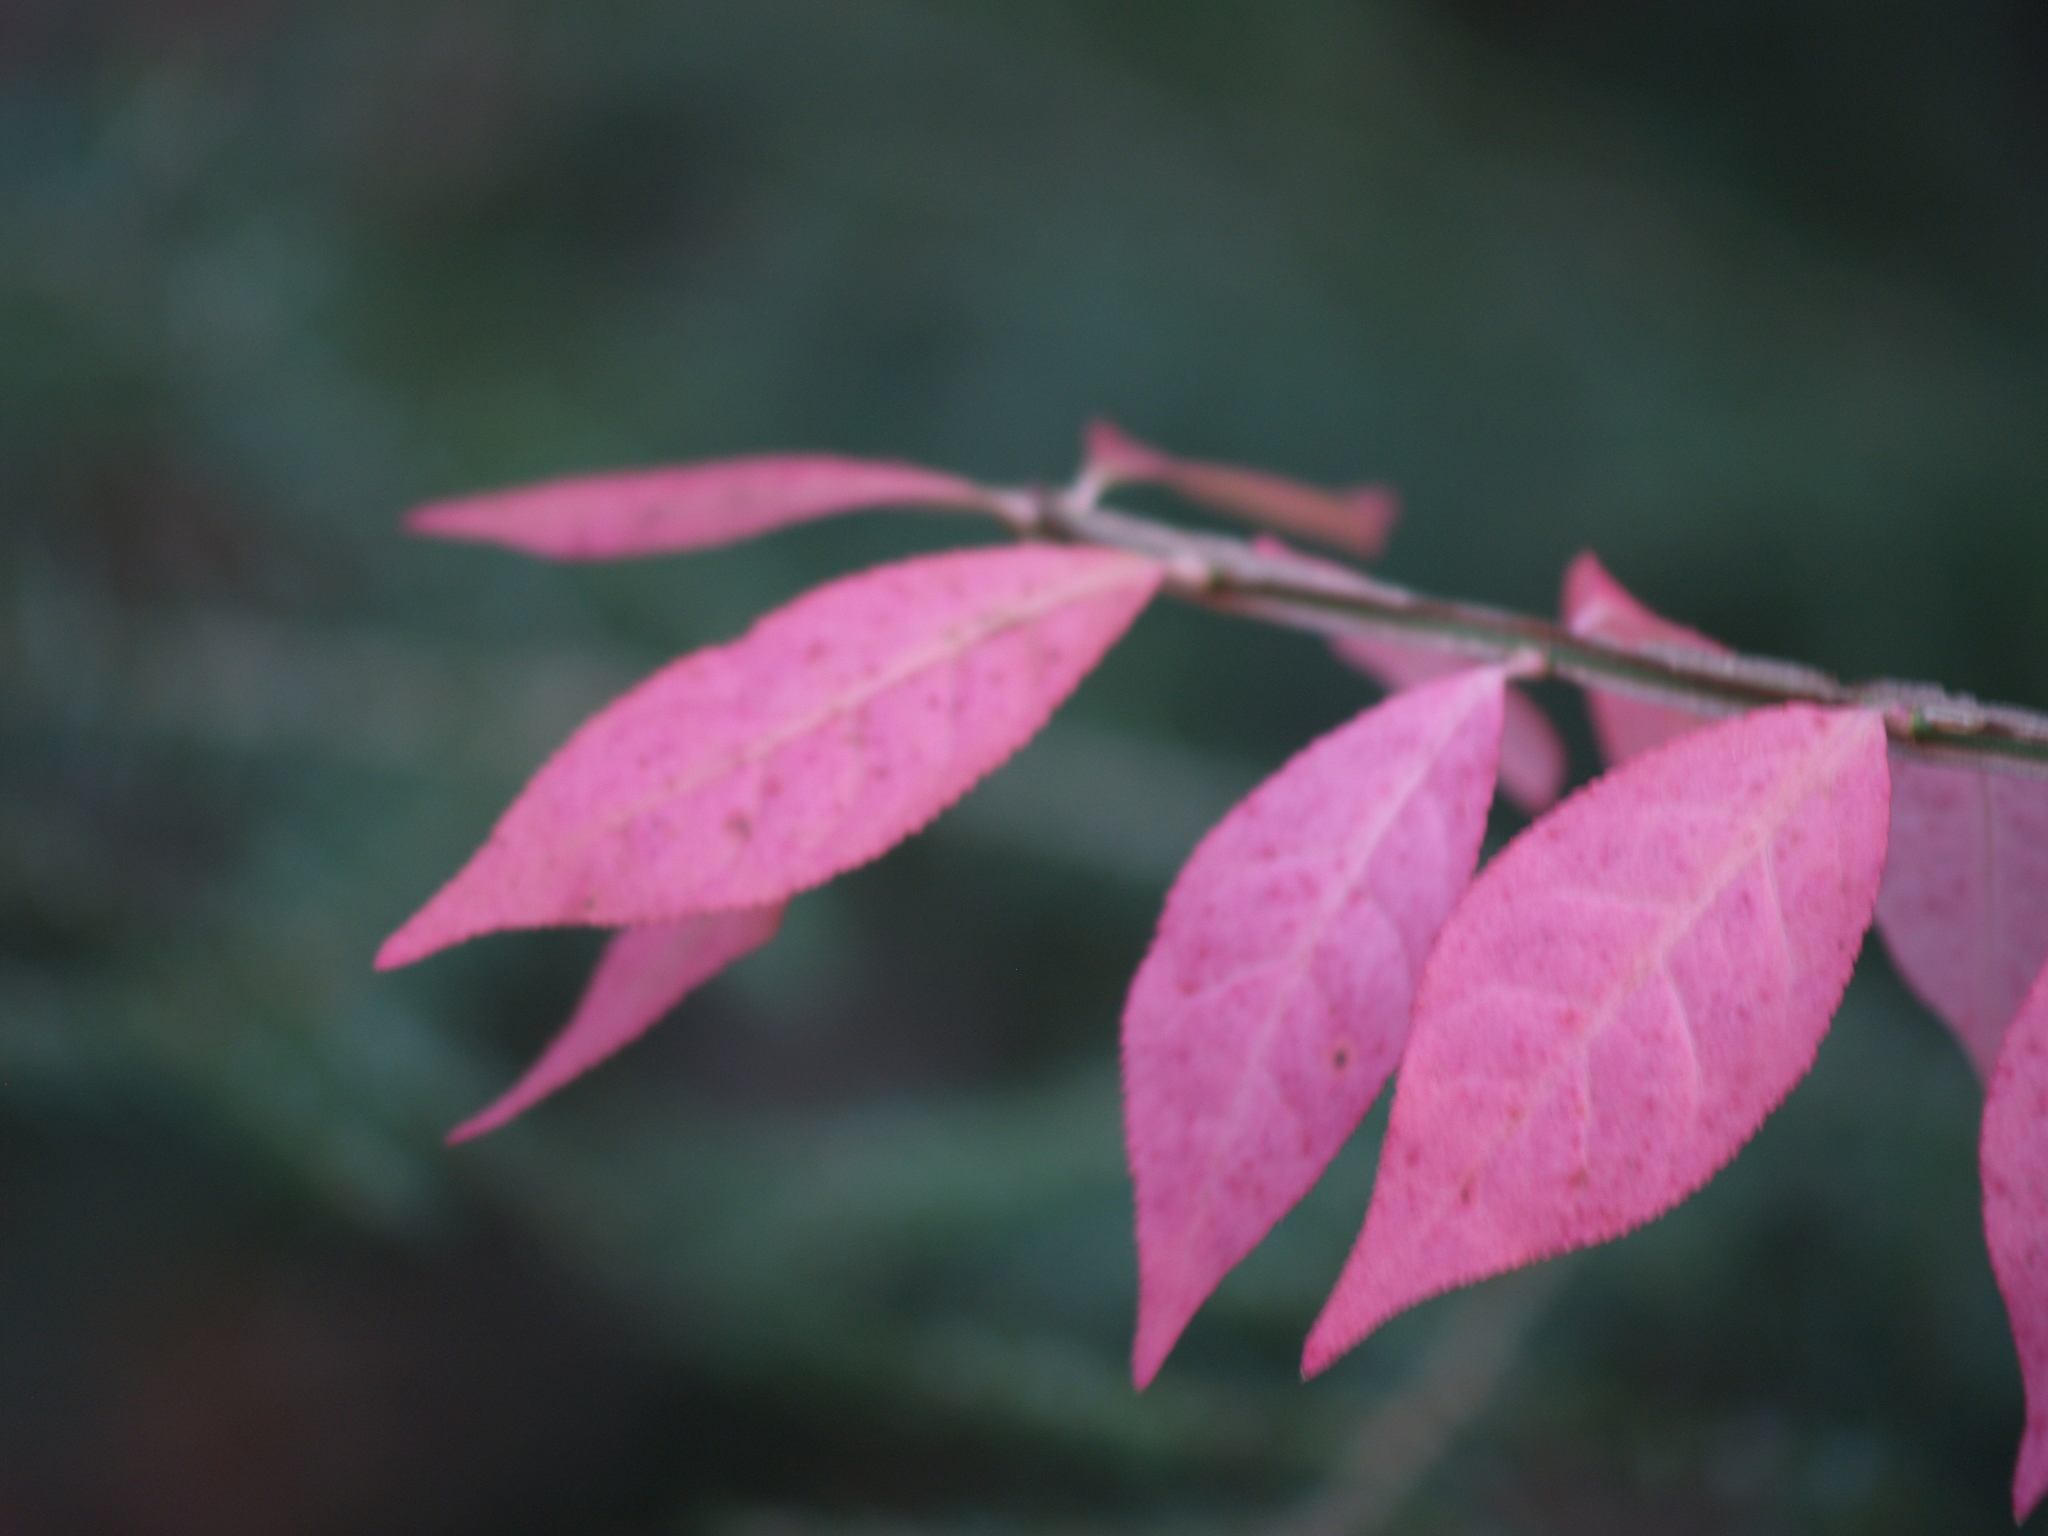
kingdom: Plantae
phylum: Tracheophyta
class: Magnoliopsida
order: Celastrales
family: Celastraceae
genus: Euonymus
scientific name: Euonymus alatus
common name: Winged euonymus
